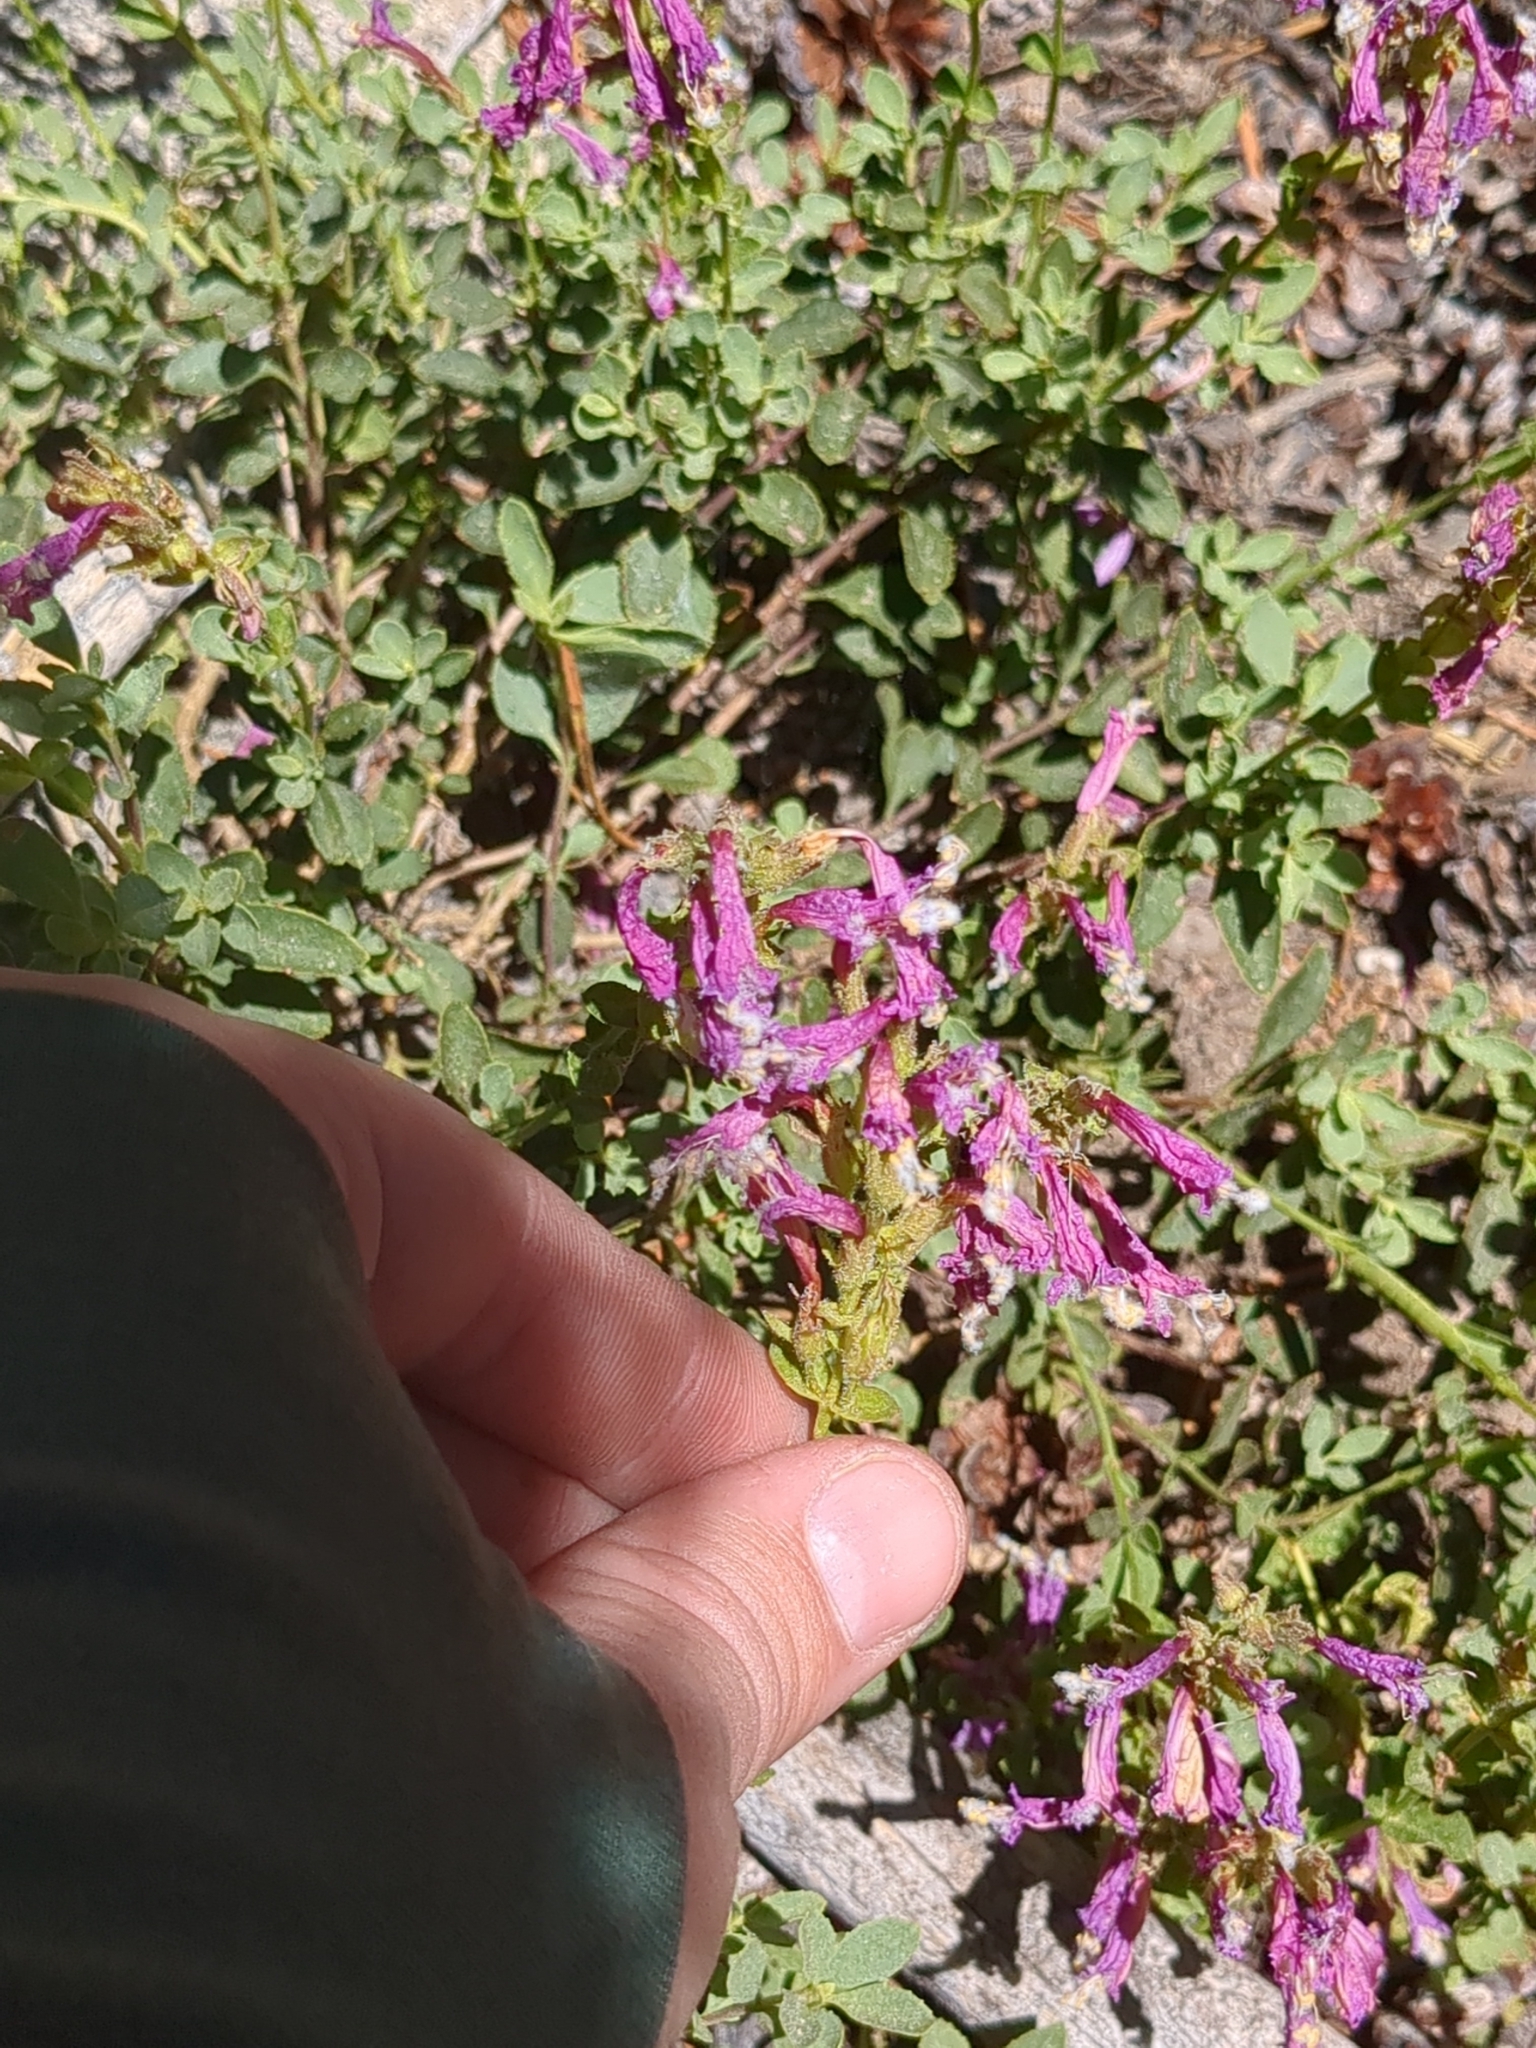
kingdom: Plantae
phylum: Tracheophyta
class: Magnoliopsida
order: Lamiales
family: Plantaginaceae
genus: Penstemon
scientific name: Penstemon newberryi
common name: Mountain-pride
